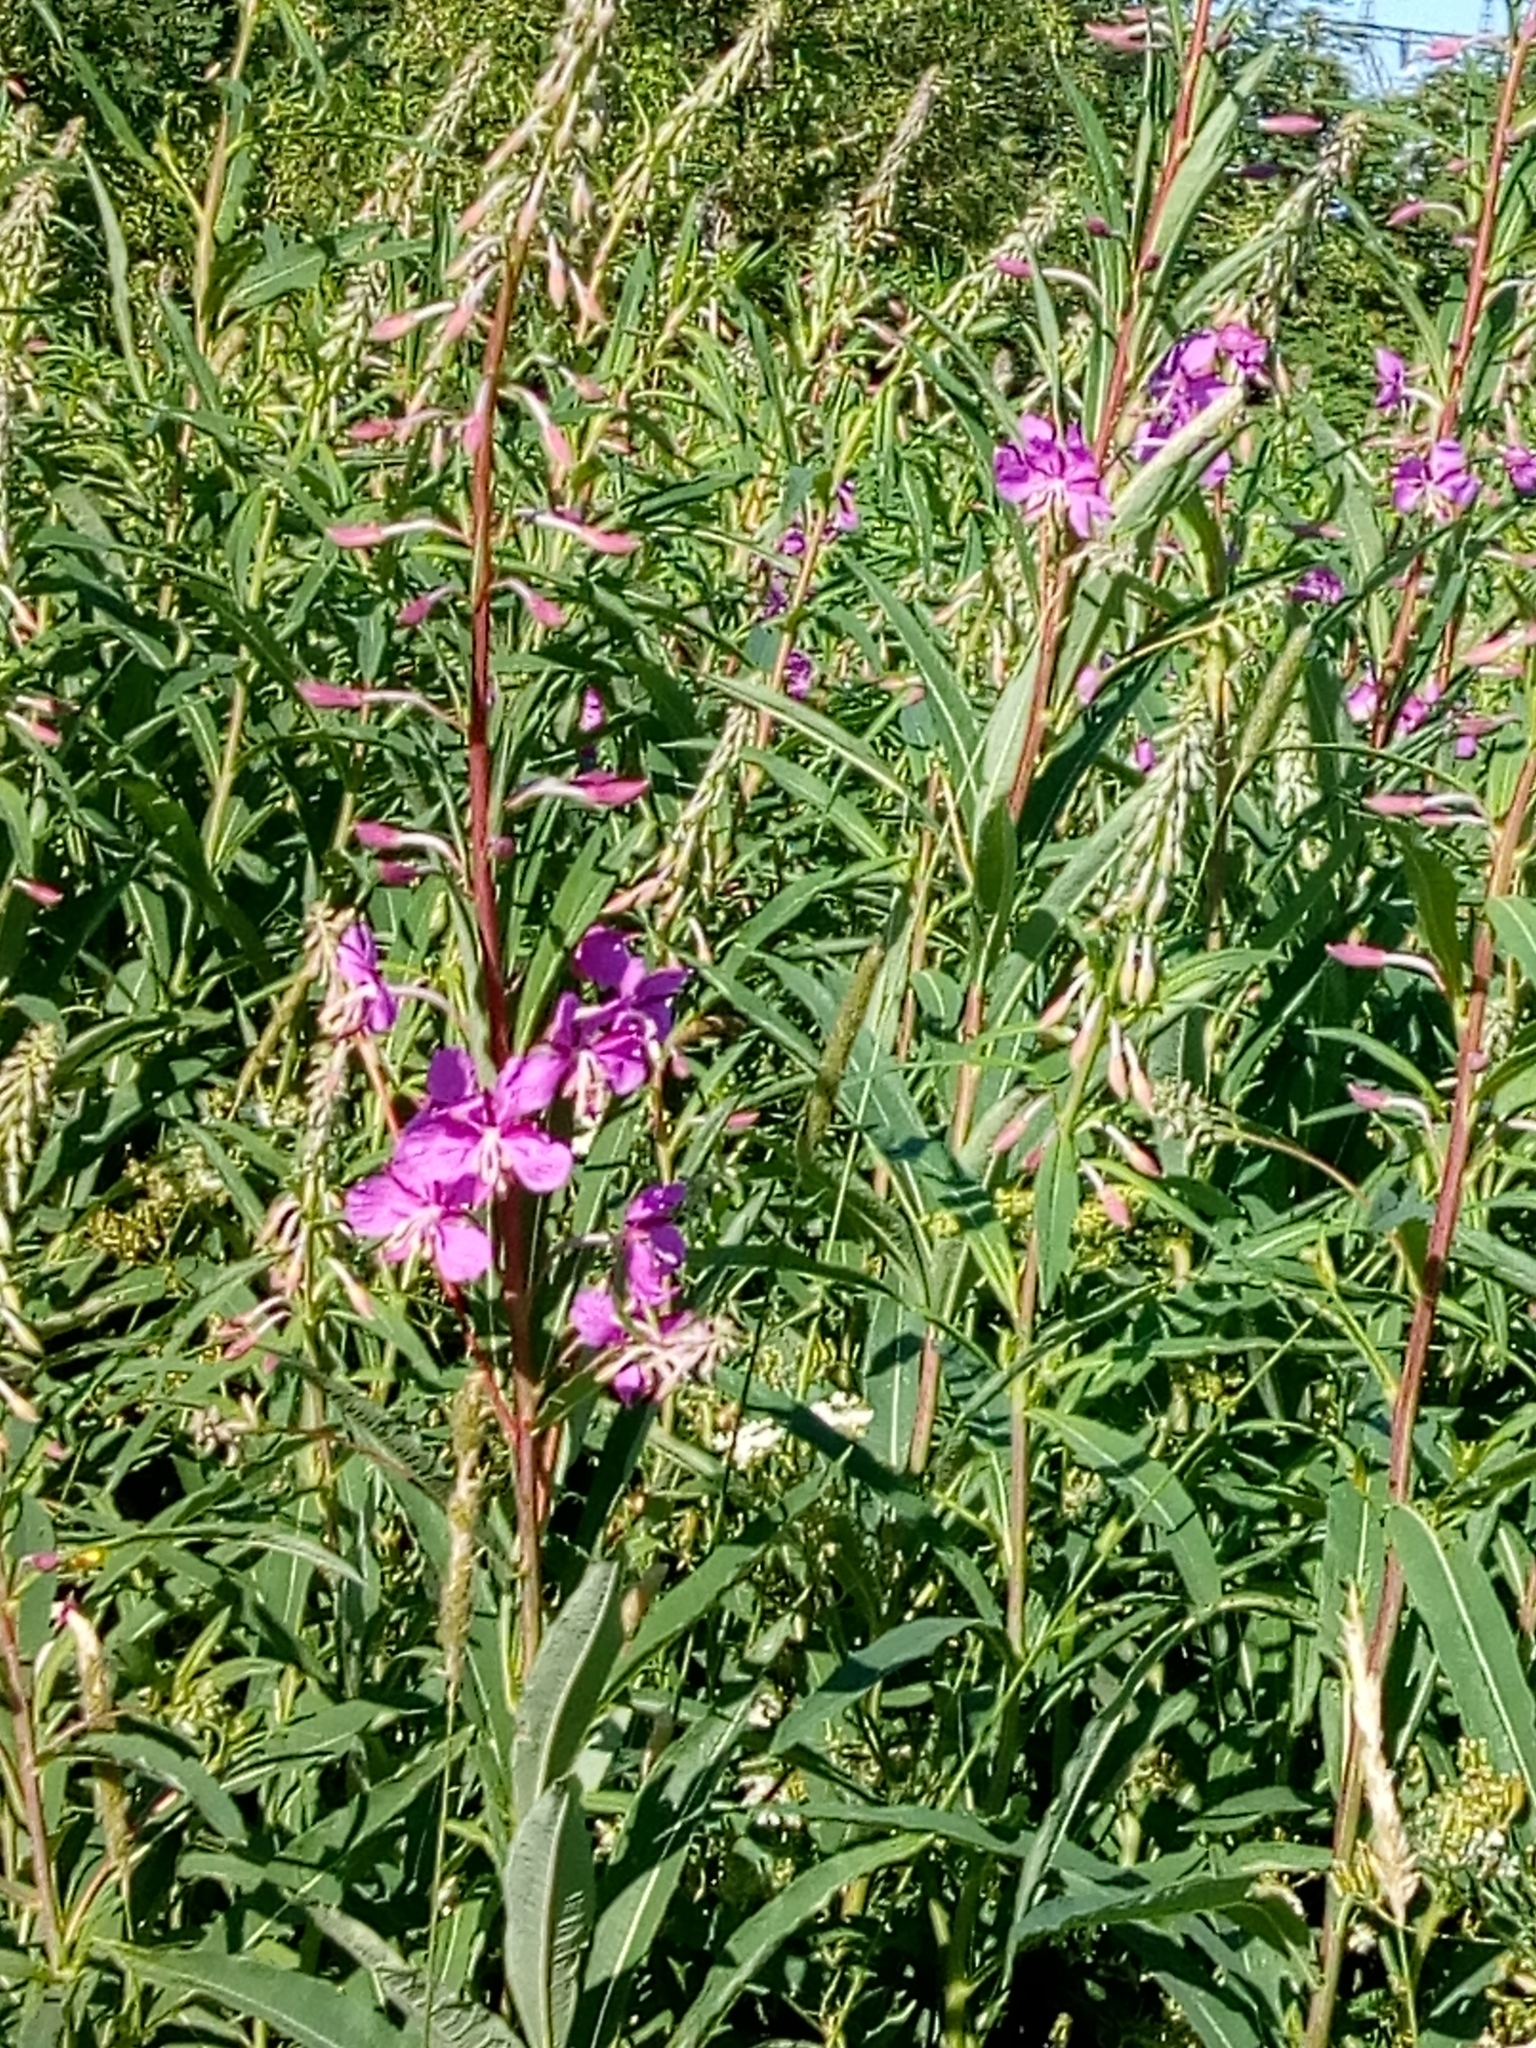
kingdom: Plantae
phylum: Tracheophyta
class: Magnoliopsida
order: Myrtales
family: Onagraceae
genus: Chamaenerion
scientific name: Chamaenerion angustifolium
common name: Fireweed
